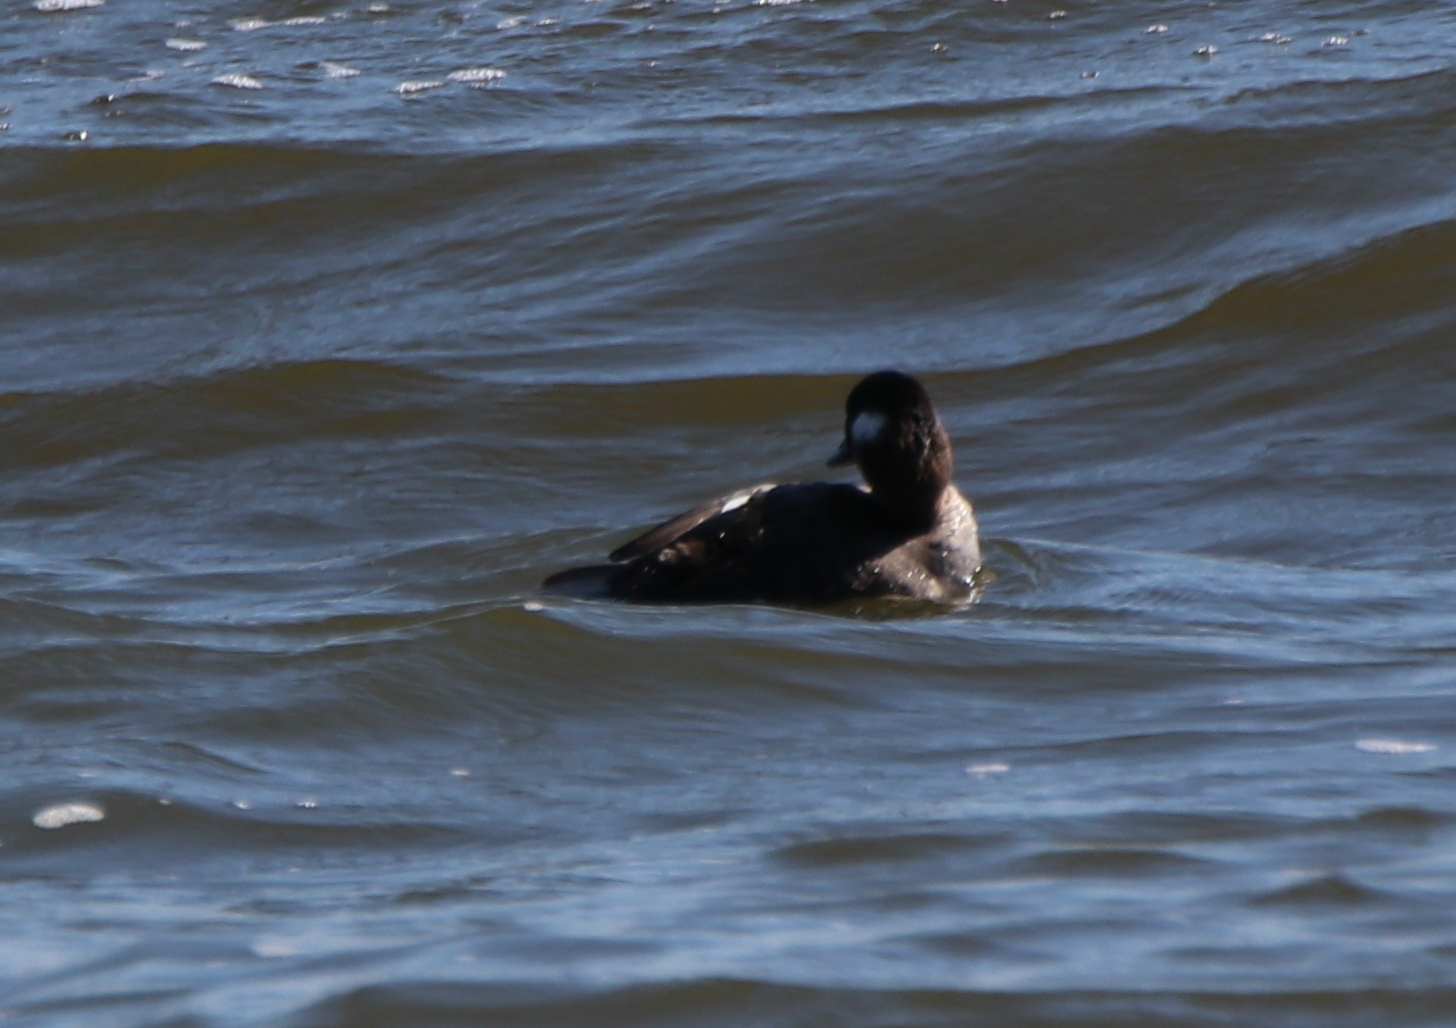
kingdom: Animalia
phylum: Chordata
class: Aves
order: Anseriformes
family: Anatidae
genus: Bucephala
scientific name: Bucephala albeola
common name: Bufflehead
